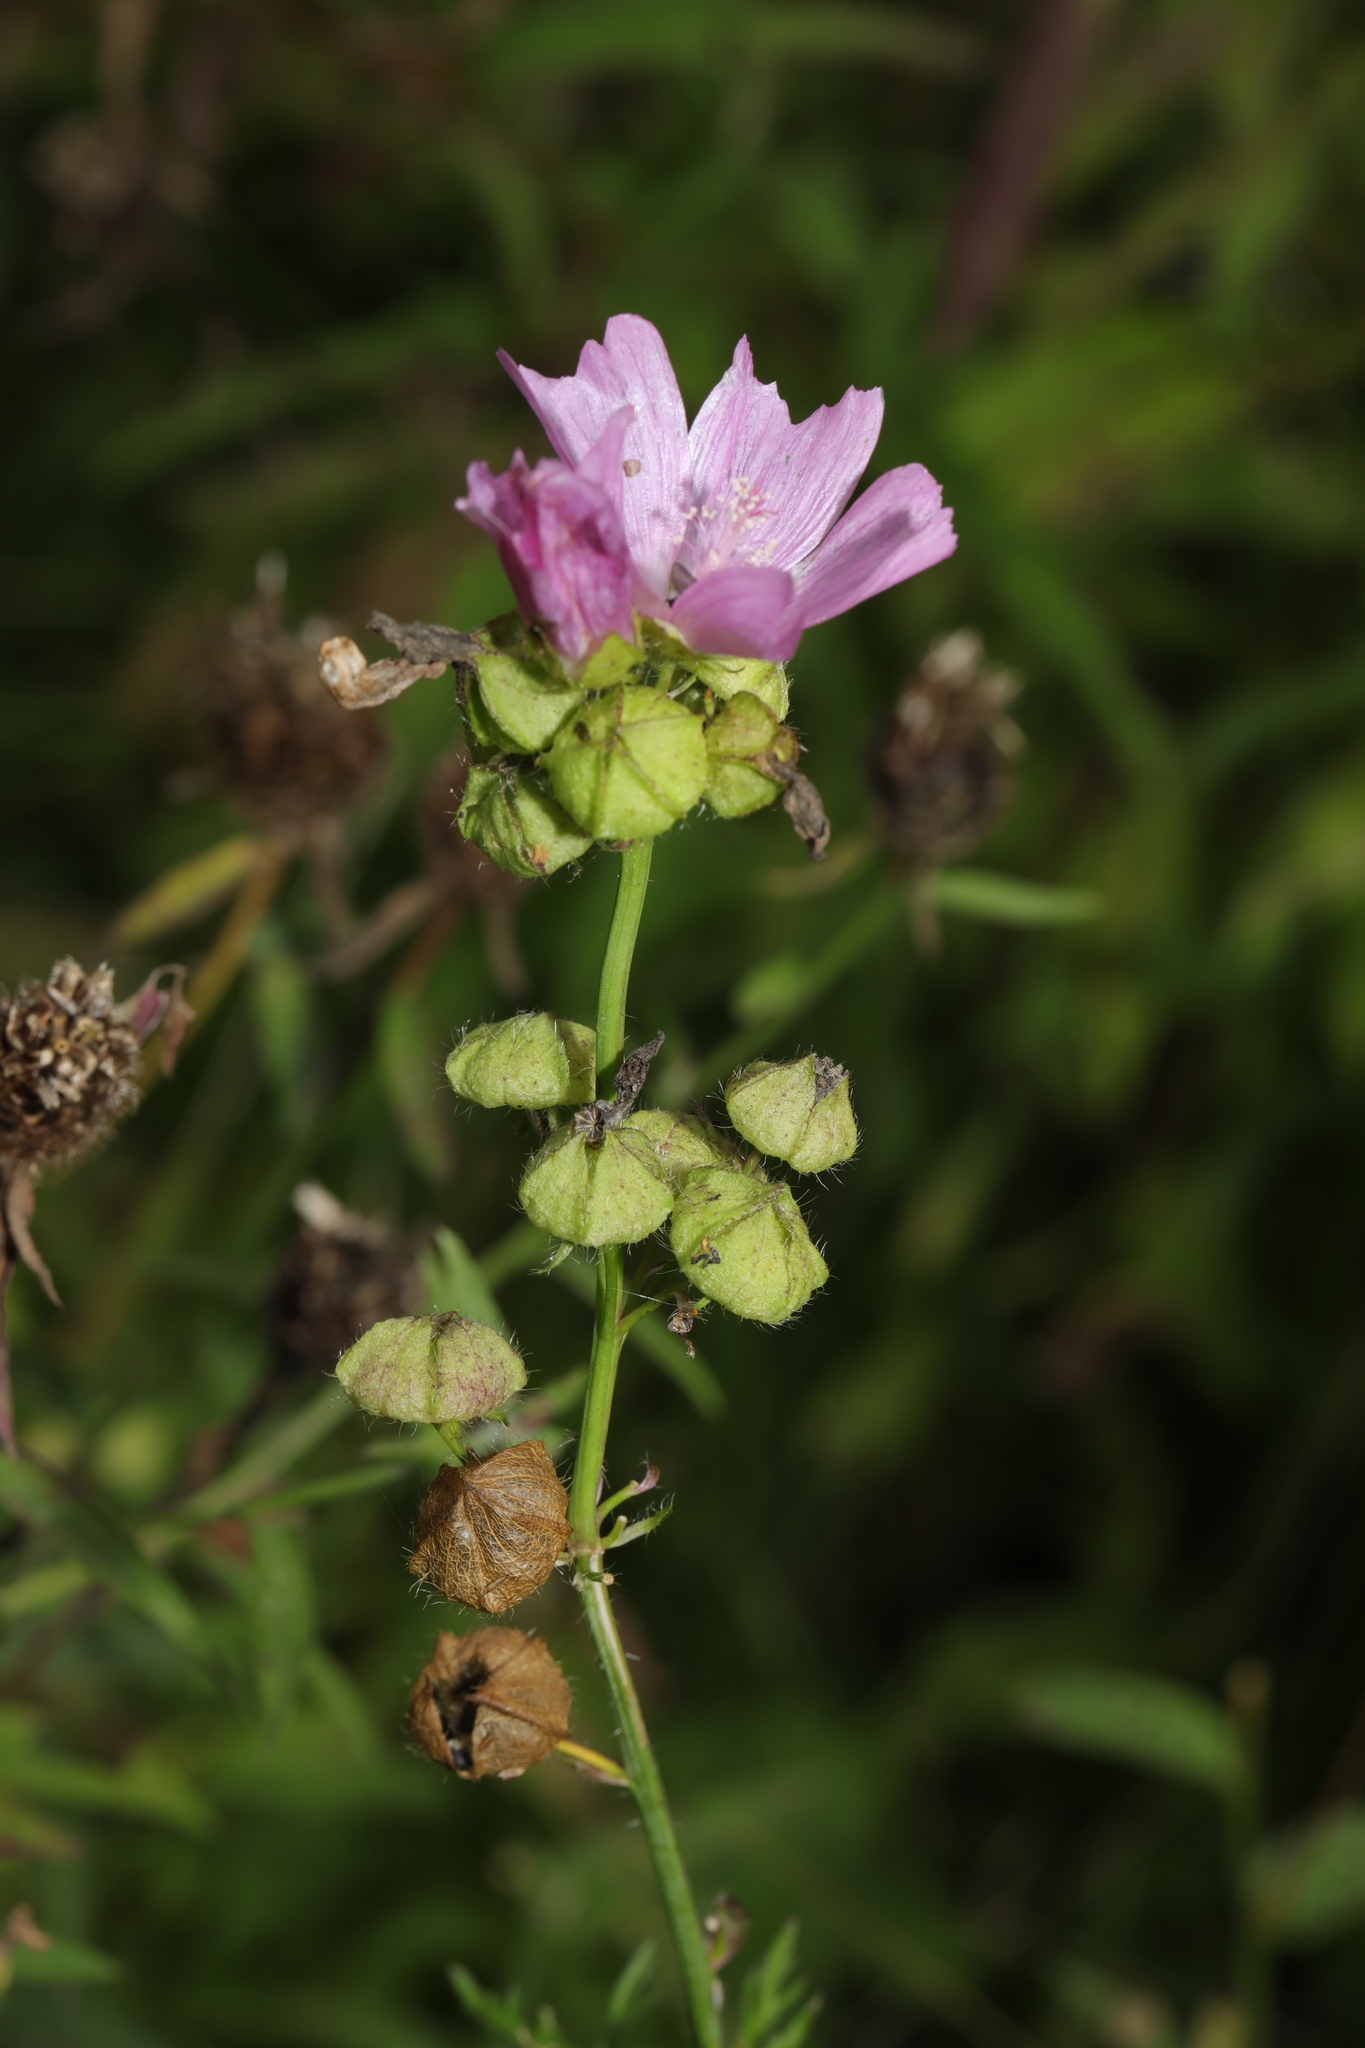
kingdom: Plantae
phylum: Tracheophyta
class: Magnoliopsida
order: Malvales
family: Malvaceae
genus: Malva
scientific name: Malva moschata
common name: Musk mallow
